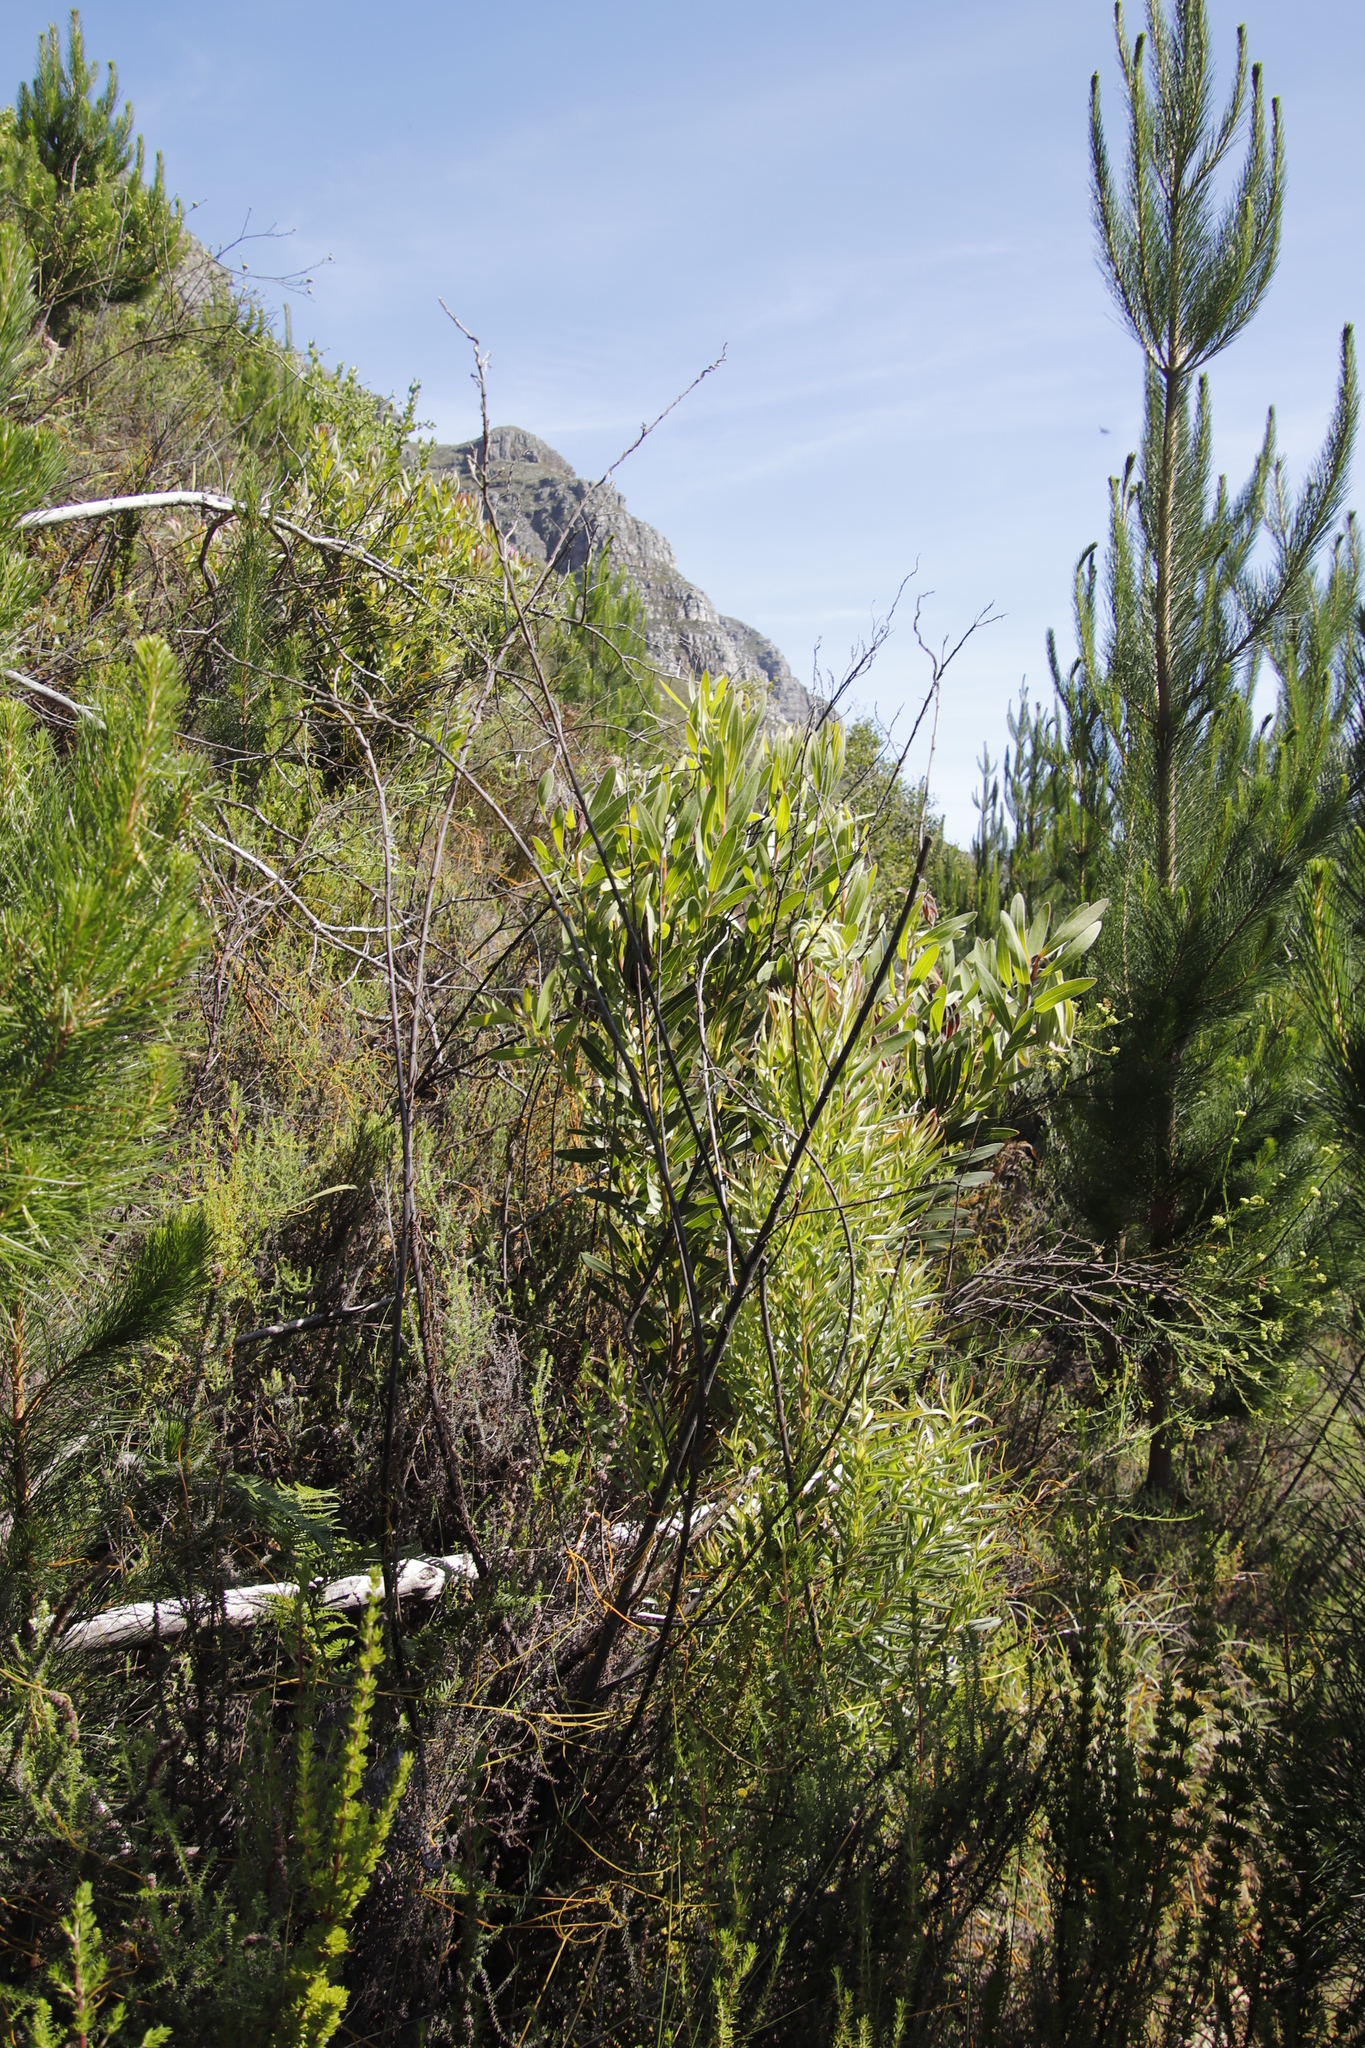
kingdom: Plantae
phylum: Tracheophyta
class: Magnoliopsida
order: Proteales
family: Proteaceae
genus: Protea
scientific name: Protea lepidocarpodendron
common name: Black-bearded protea
